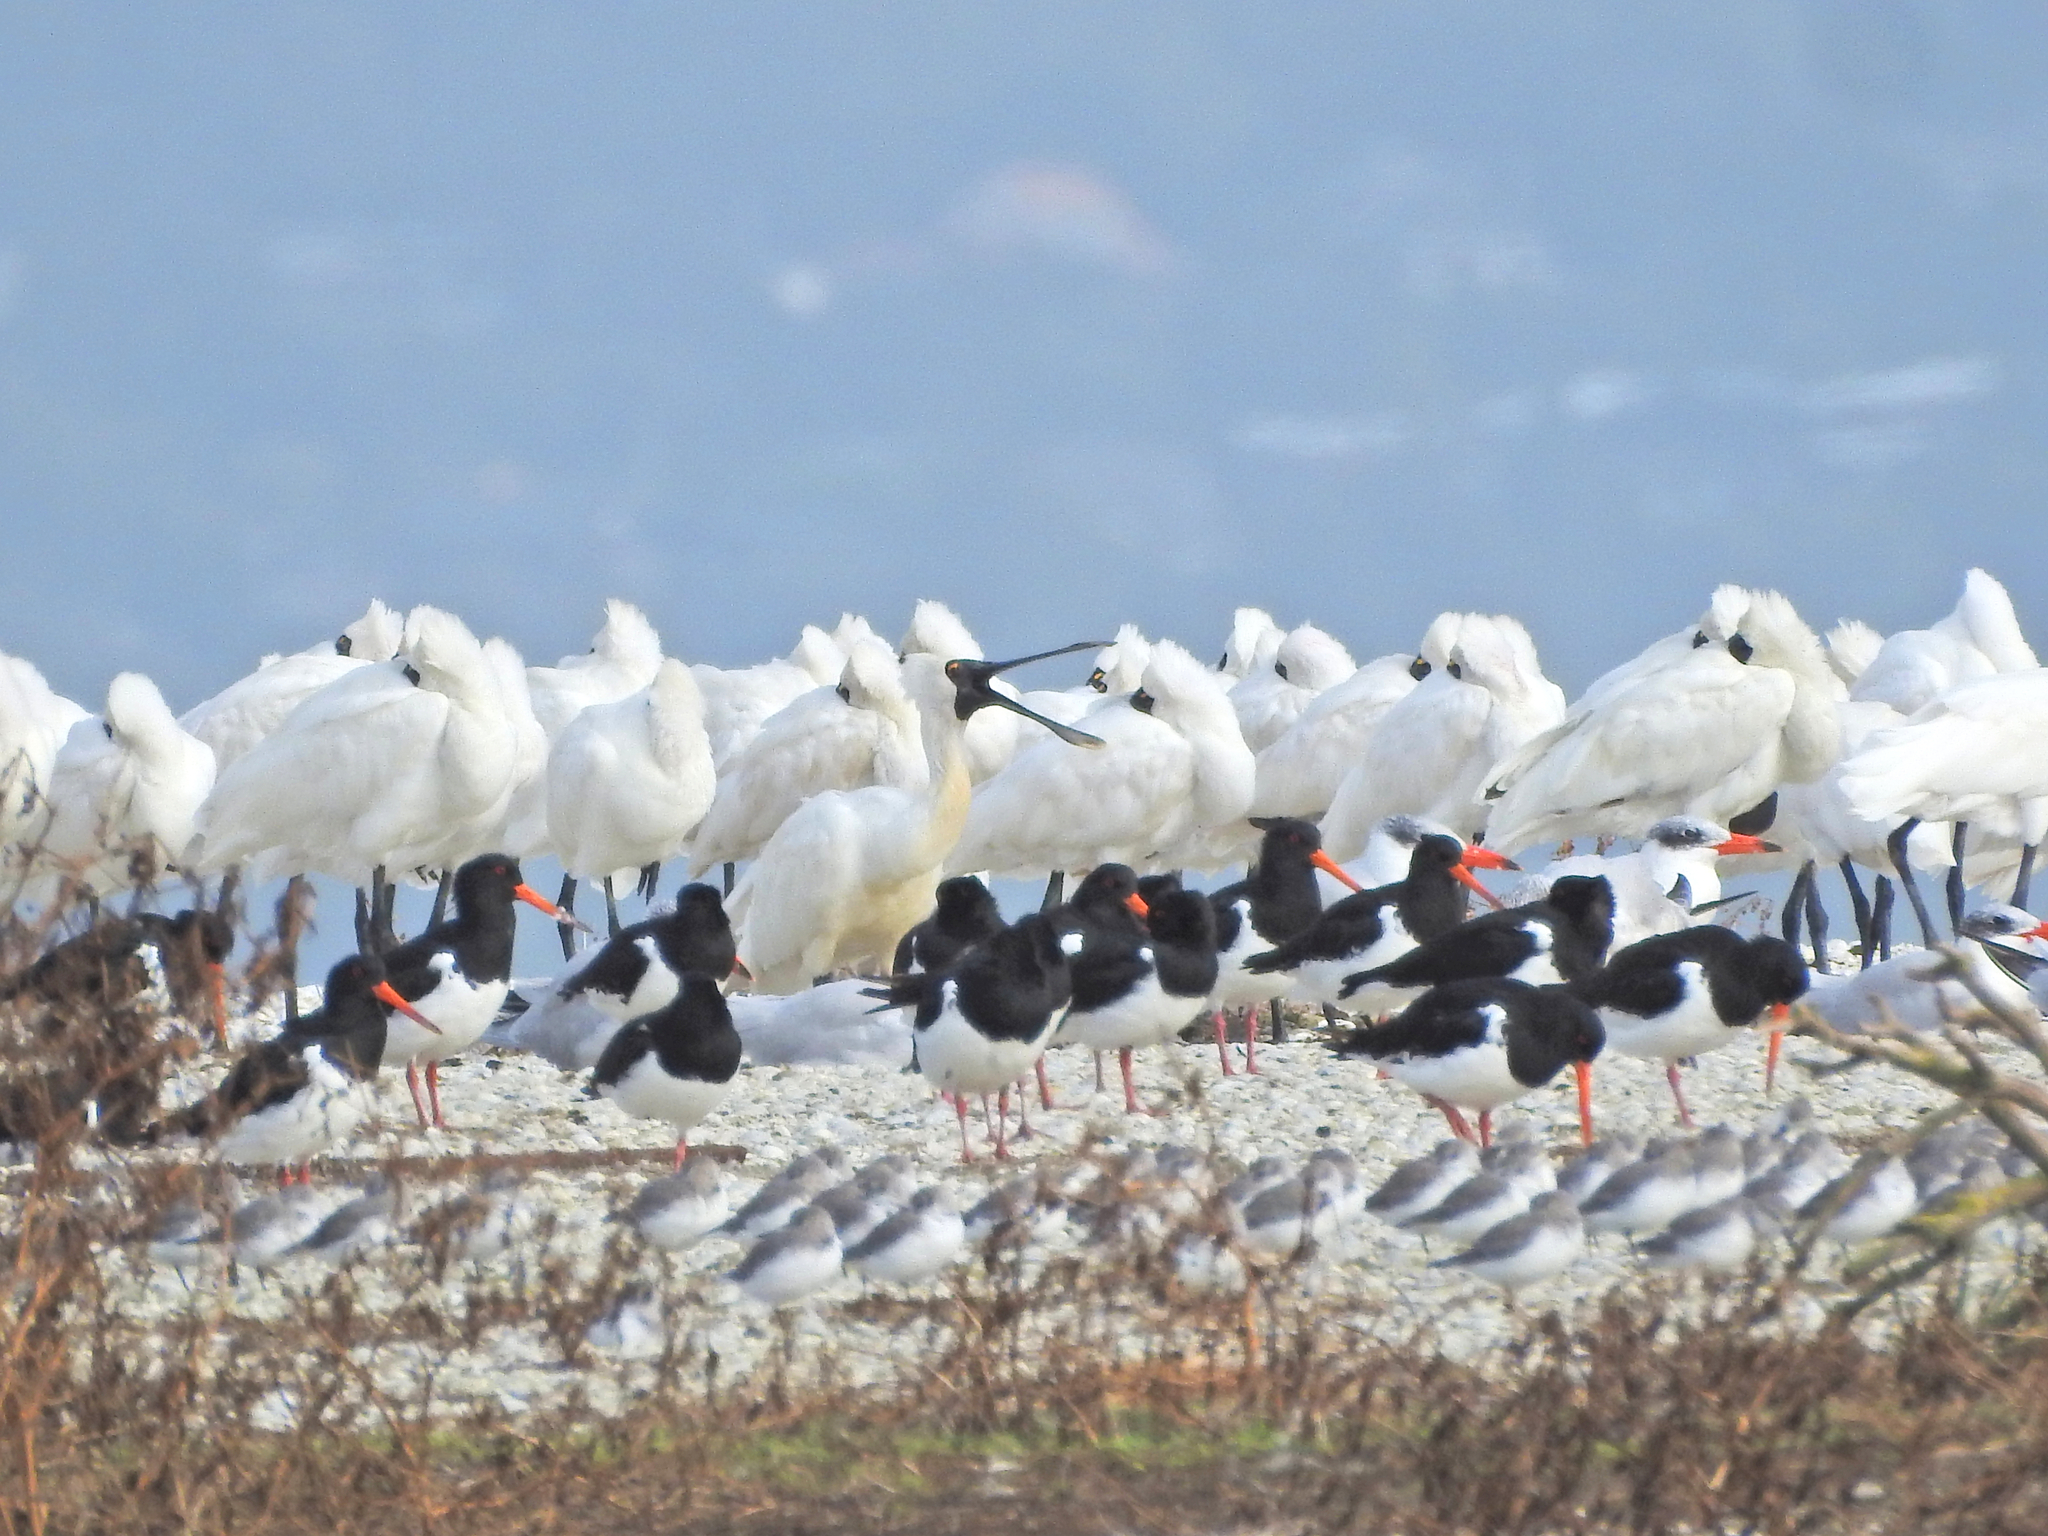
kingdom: Animalia
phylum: Chordata
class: Aves
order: Charadriiformes
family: Haematopodidae
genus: Haematopus
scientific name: Haematopus finschi
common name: South island oystercatcher
